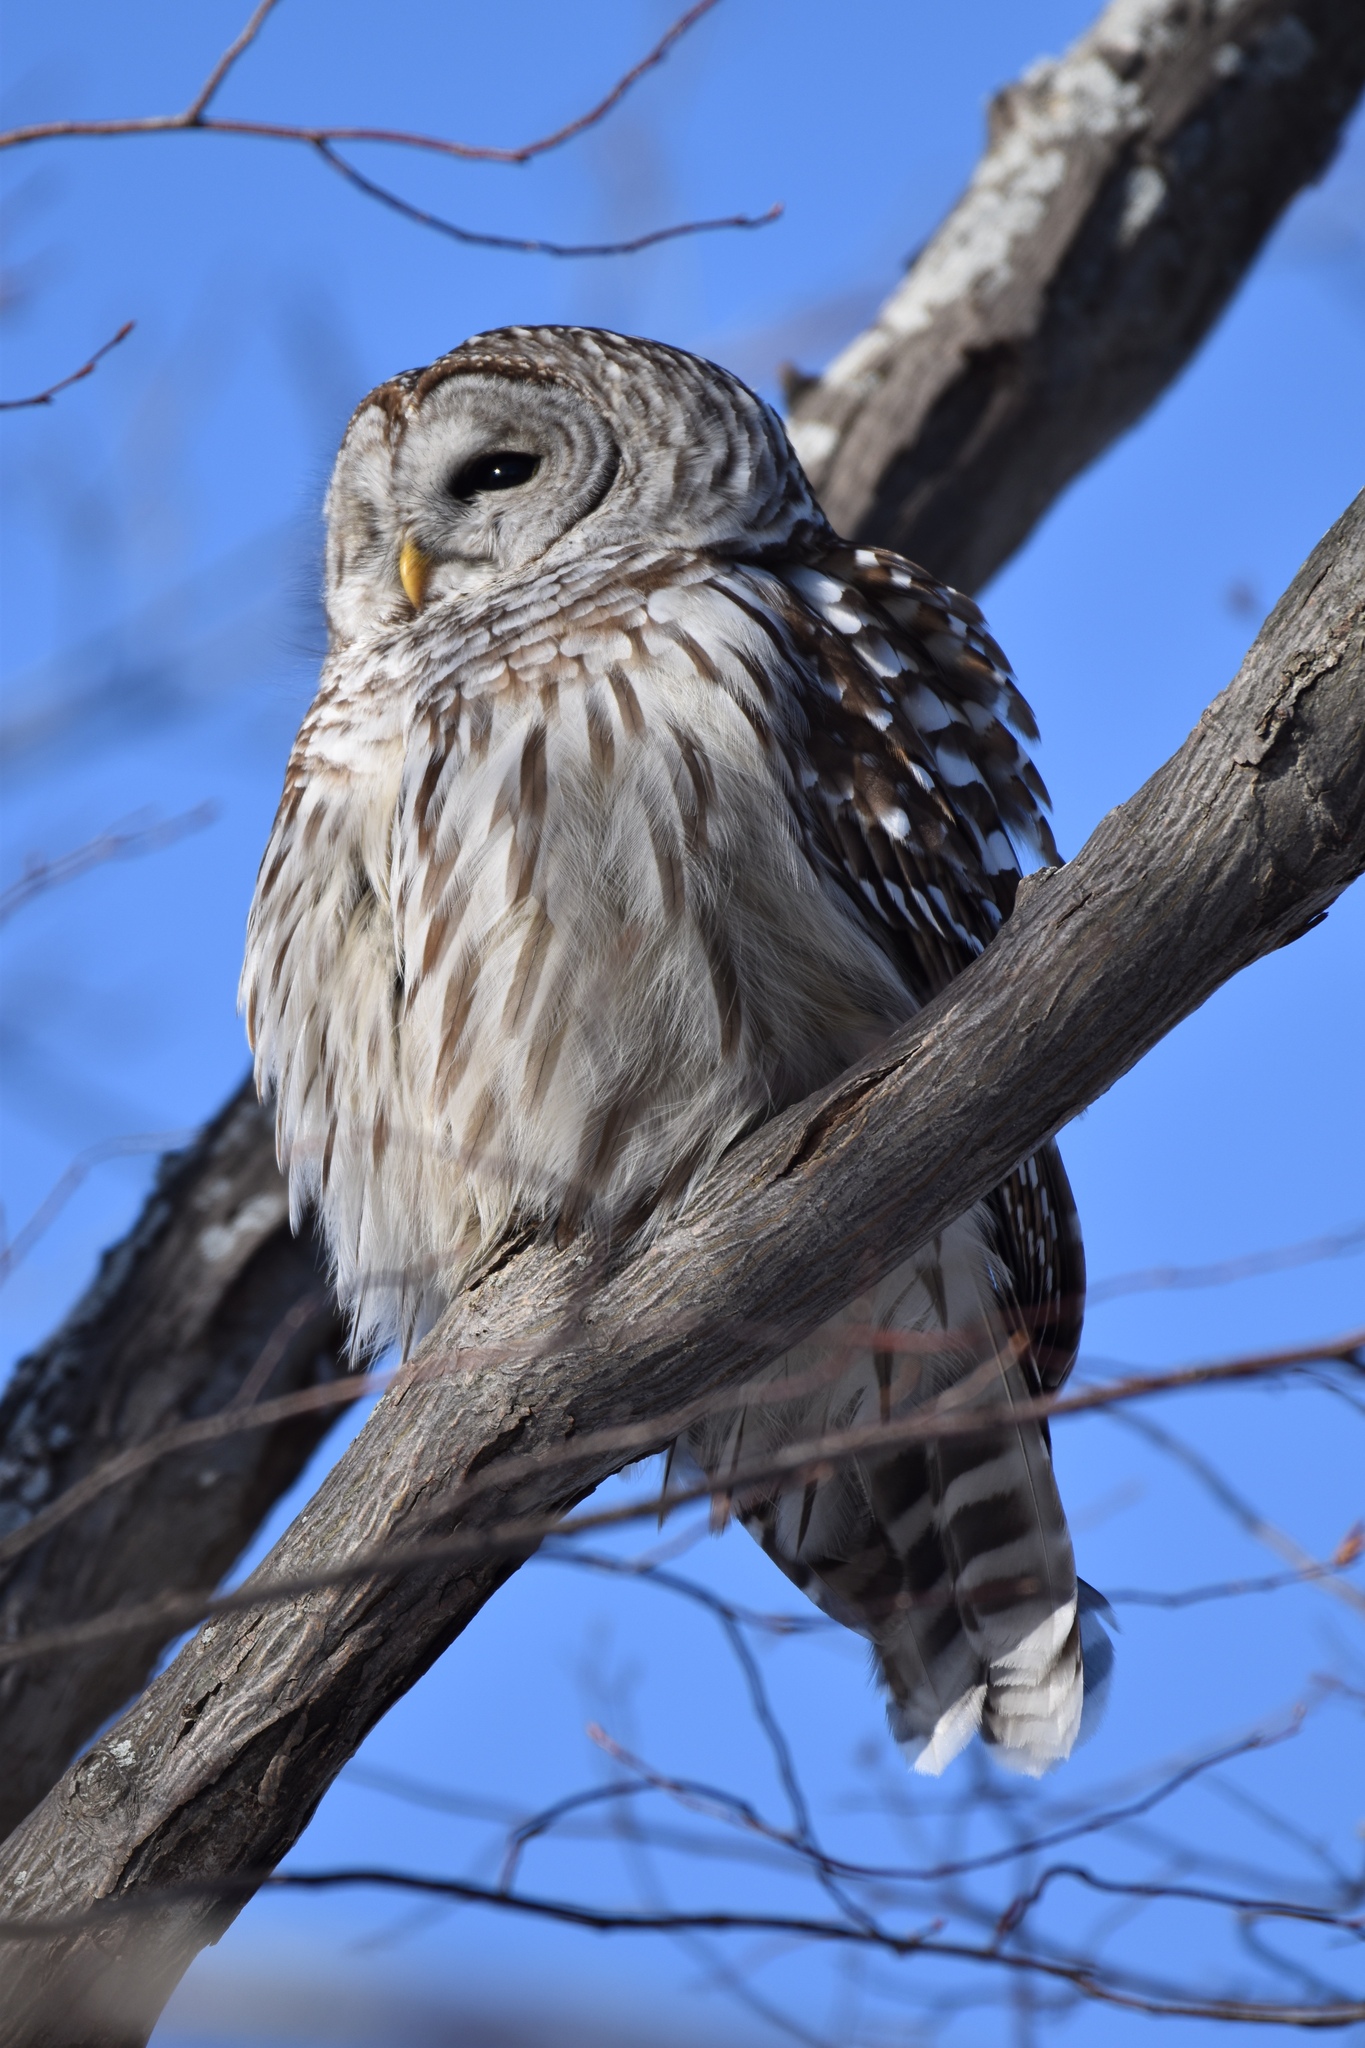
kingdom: Animalia
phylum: Chordata
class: Aves
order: Strigiformes
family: Strigidae
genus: Strix
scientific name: Strix varia
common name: Barred owl
